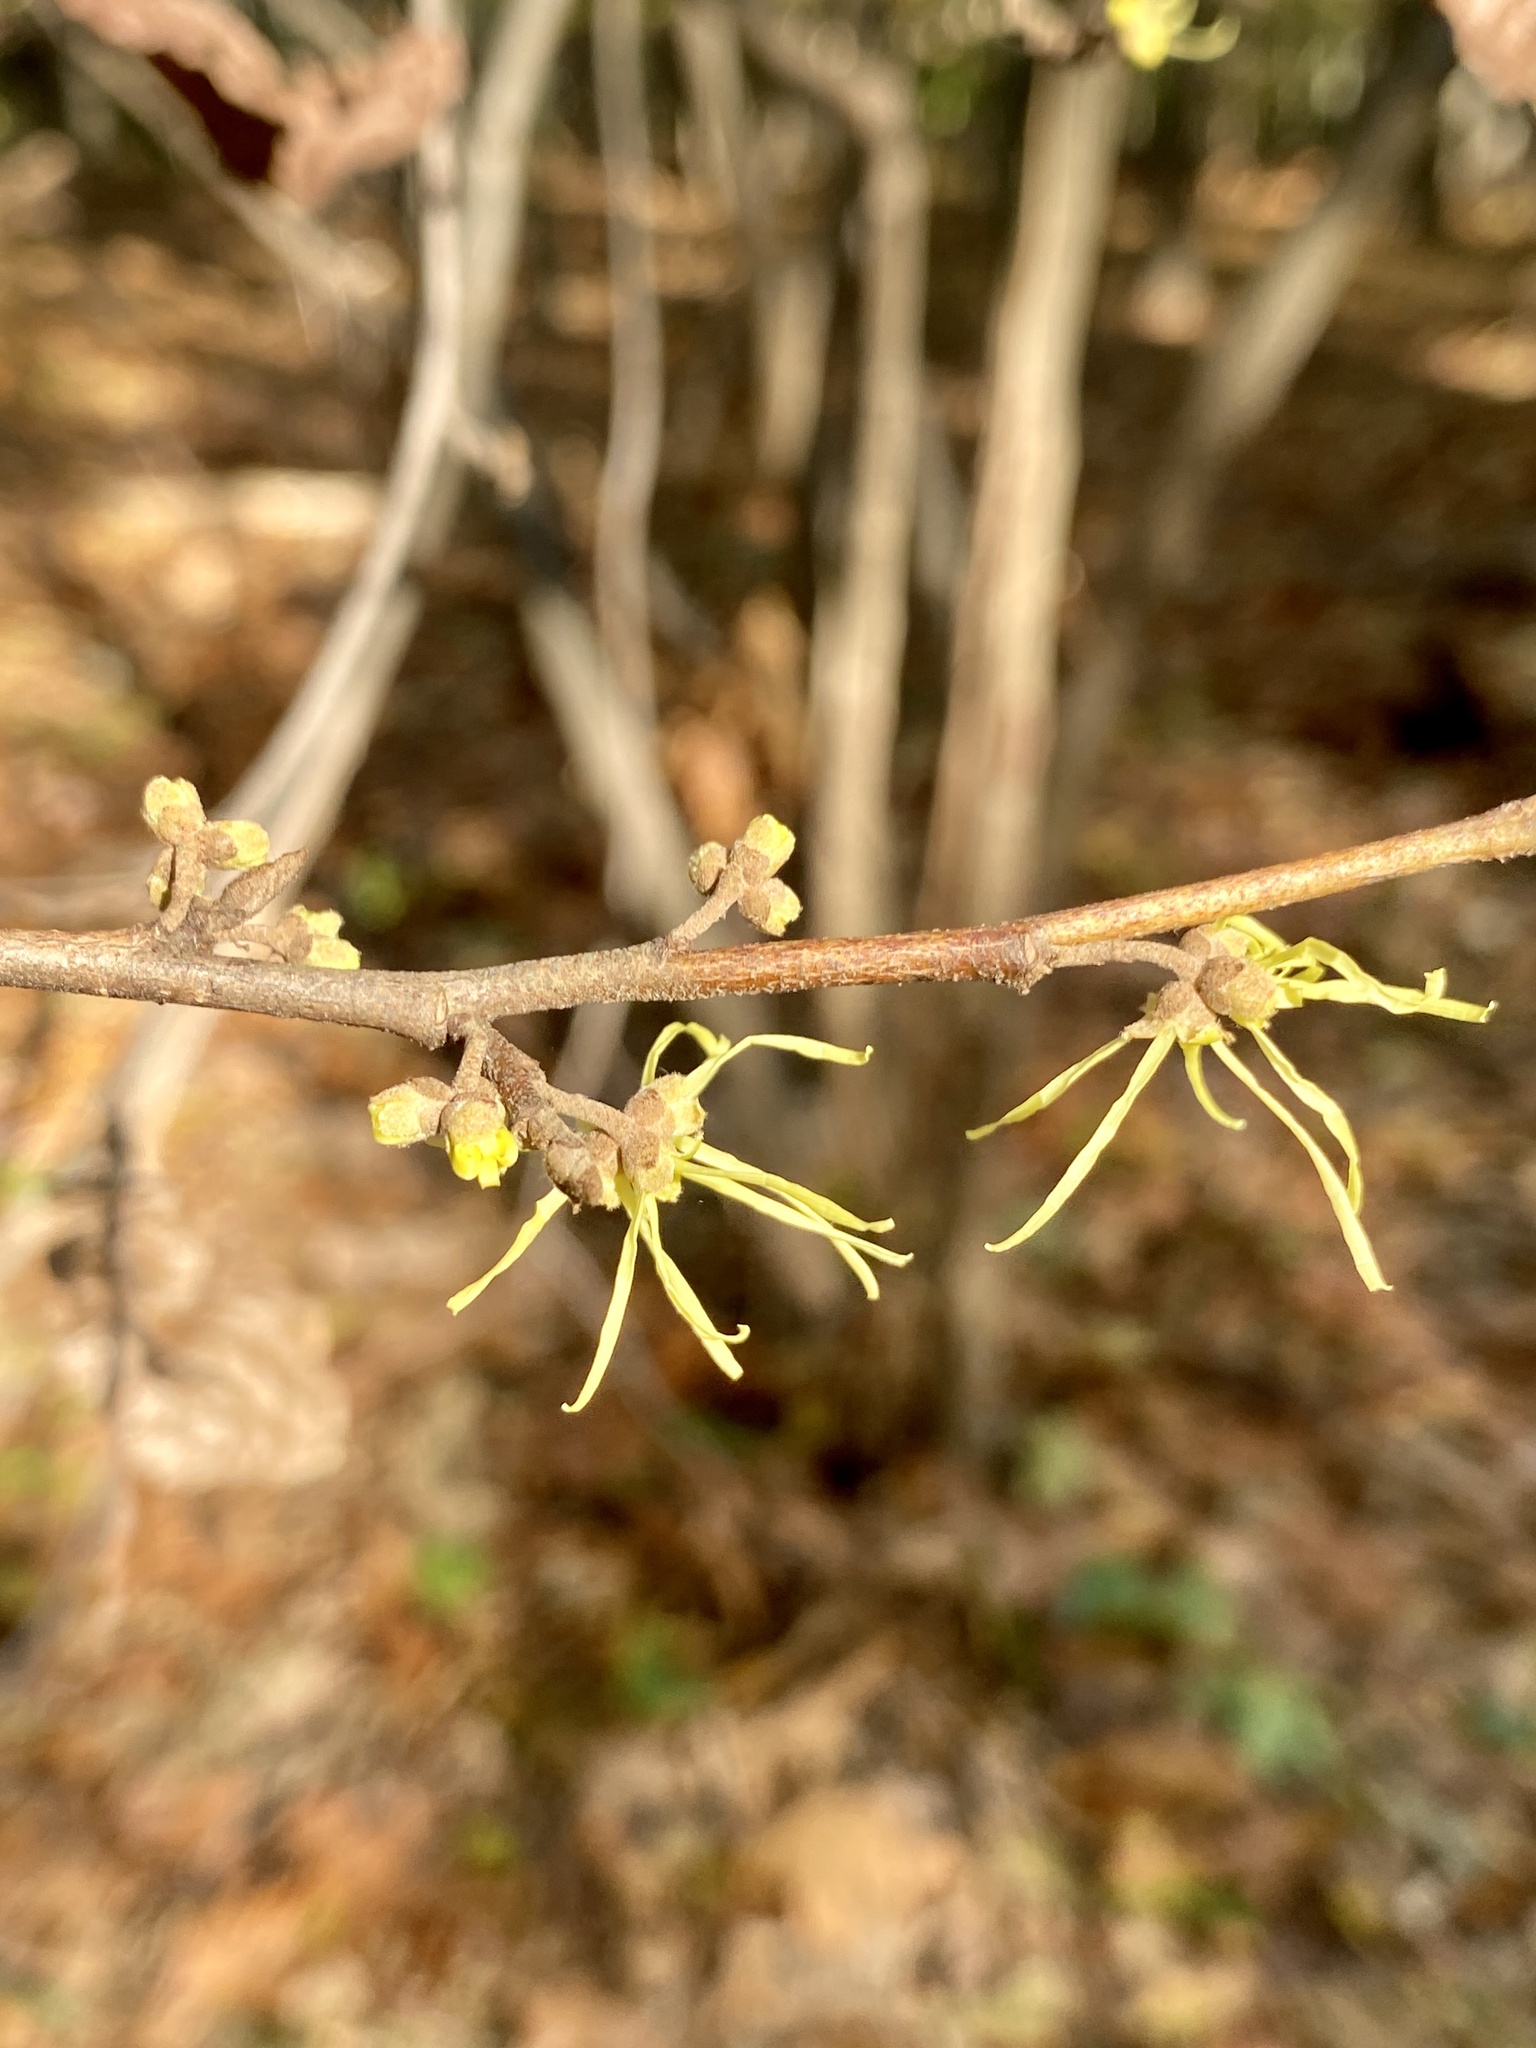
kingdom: Plantae
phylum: Tracheophyta
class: Magnoliopsida
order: Saxifragales
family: Hamamelidaceae
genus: Hamamelis
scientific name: Hamamelis virginiana
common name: Witch-hazel
